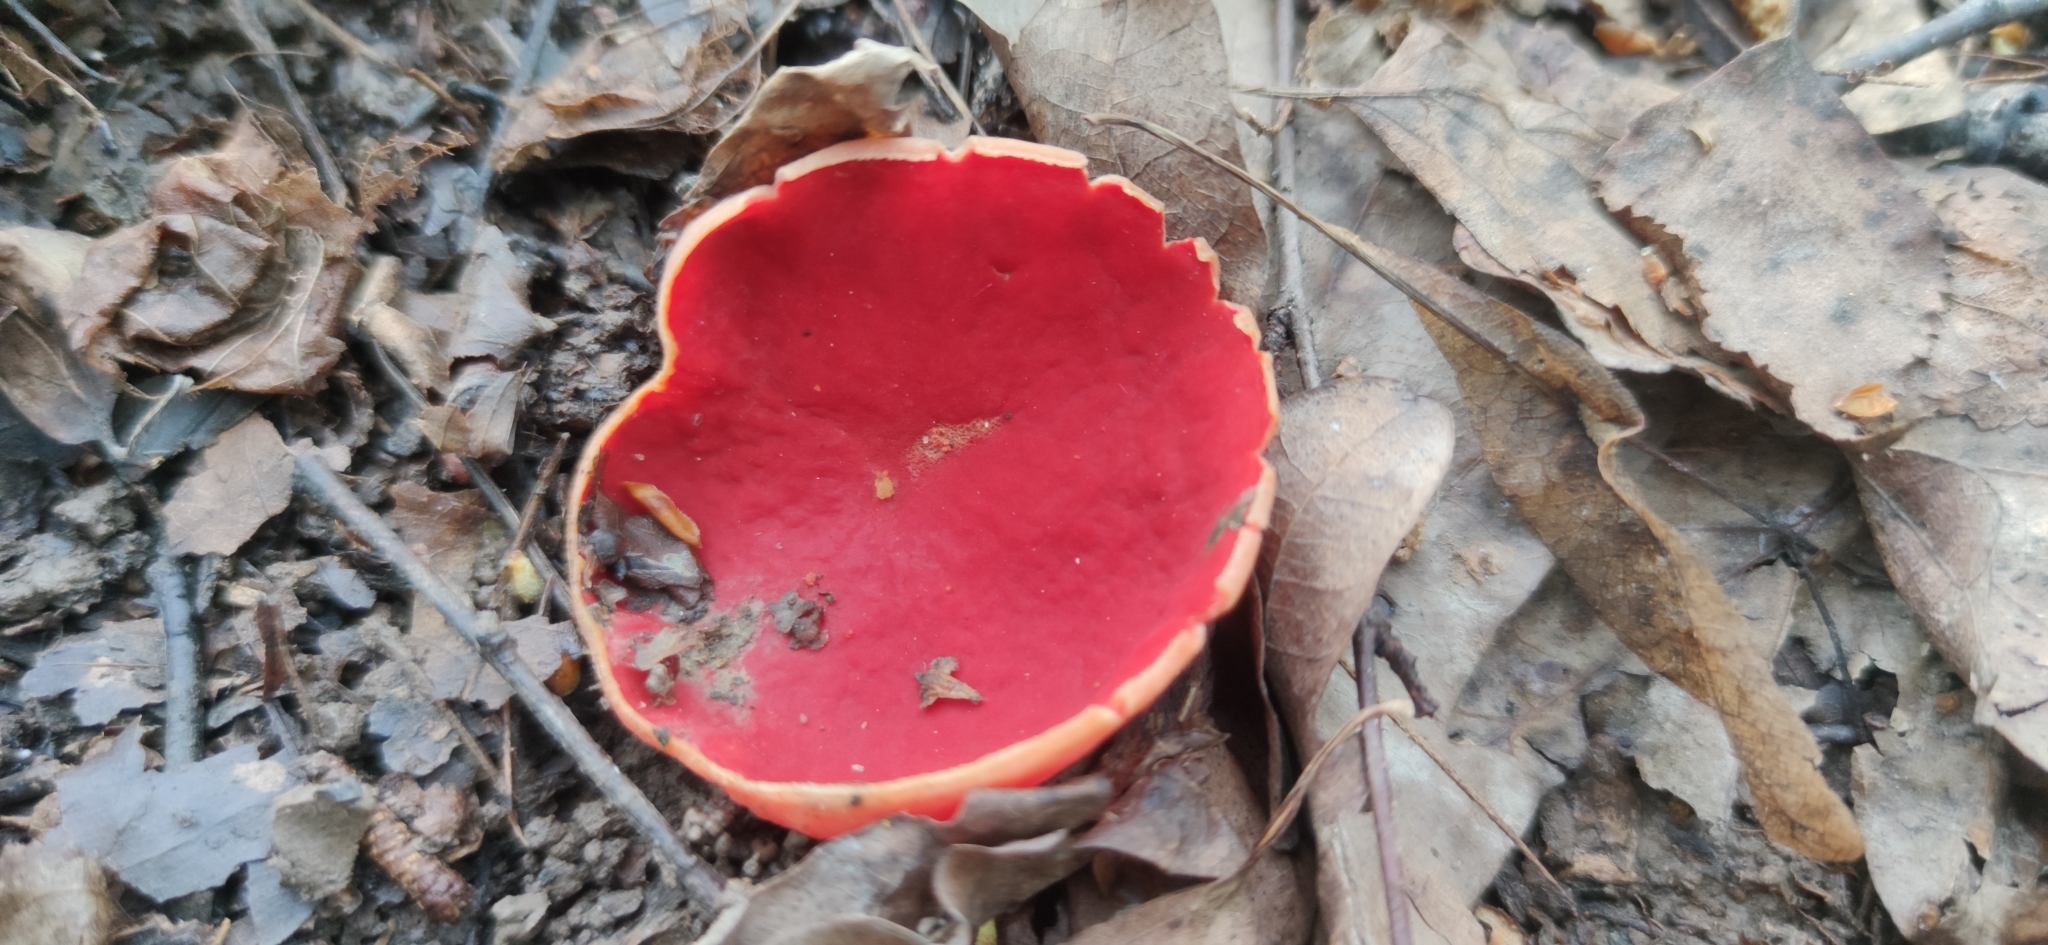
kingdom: Fungi
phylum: Ascomycota
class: Pezizomycetes
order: Pezizales
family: Sarcoscyphaceae
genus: Sarcoscypha
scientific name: Sarcoscypha austriaca
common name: Scarlet elfcup
